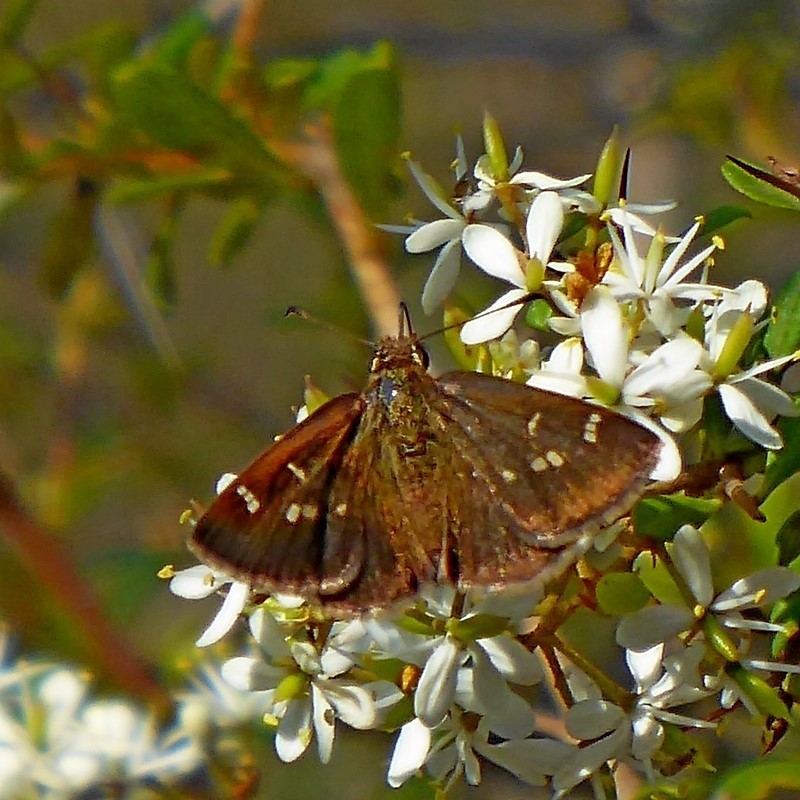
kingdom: Animalia
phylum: Arthropoda
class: Insecta
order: Lepidoptera
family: Hesperiidae
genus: Toxidia
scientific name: Toxidia parvulus
